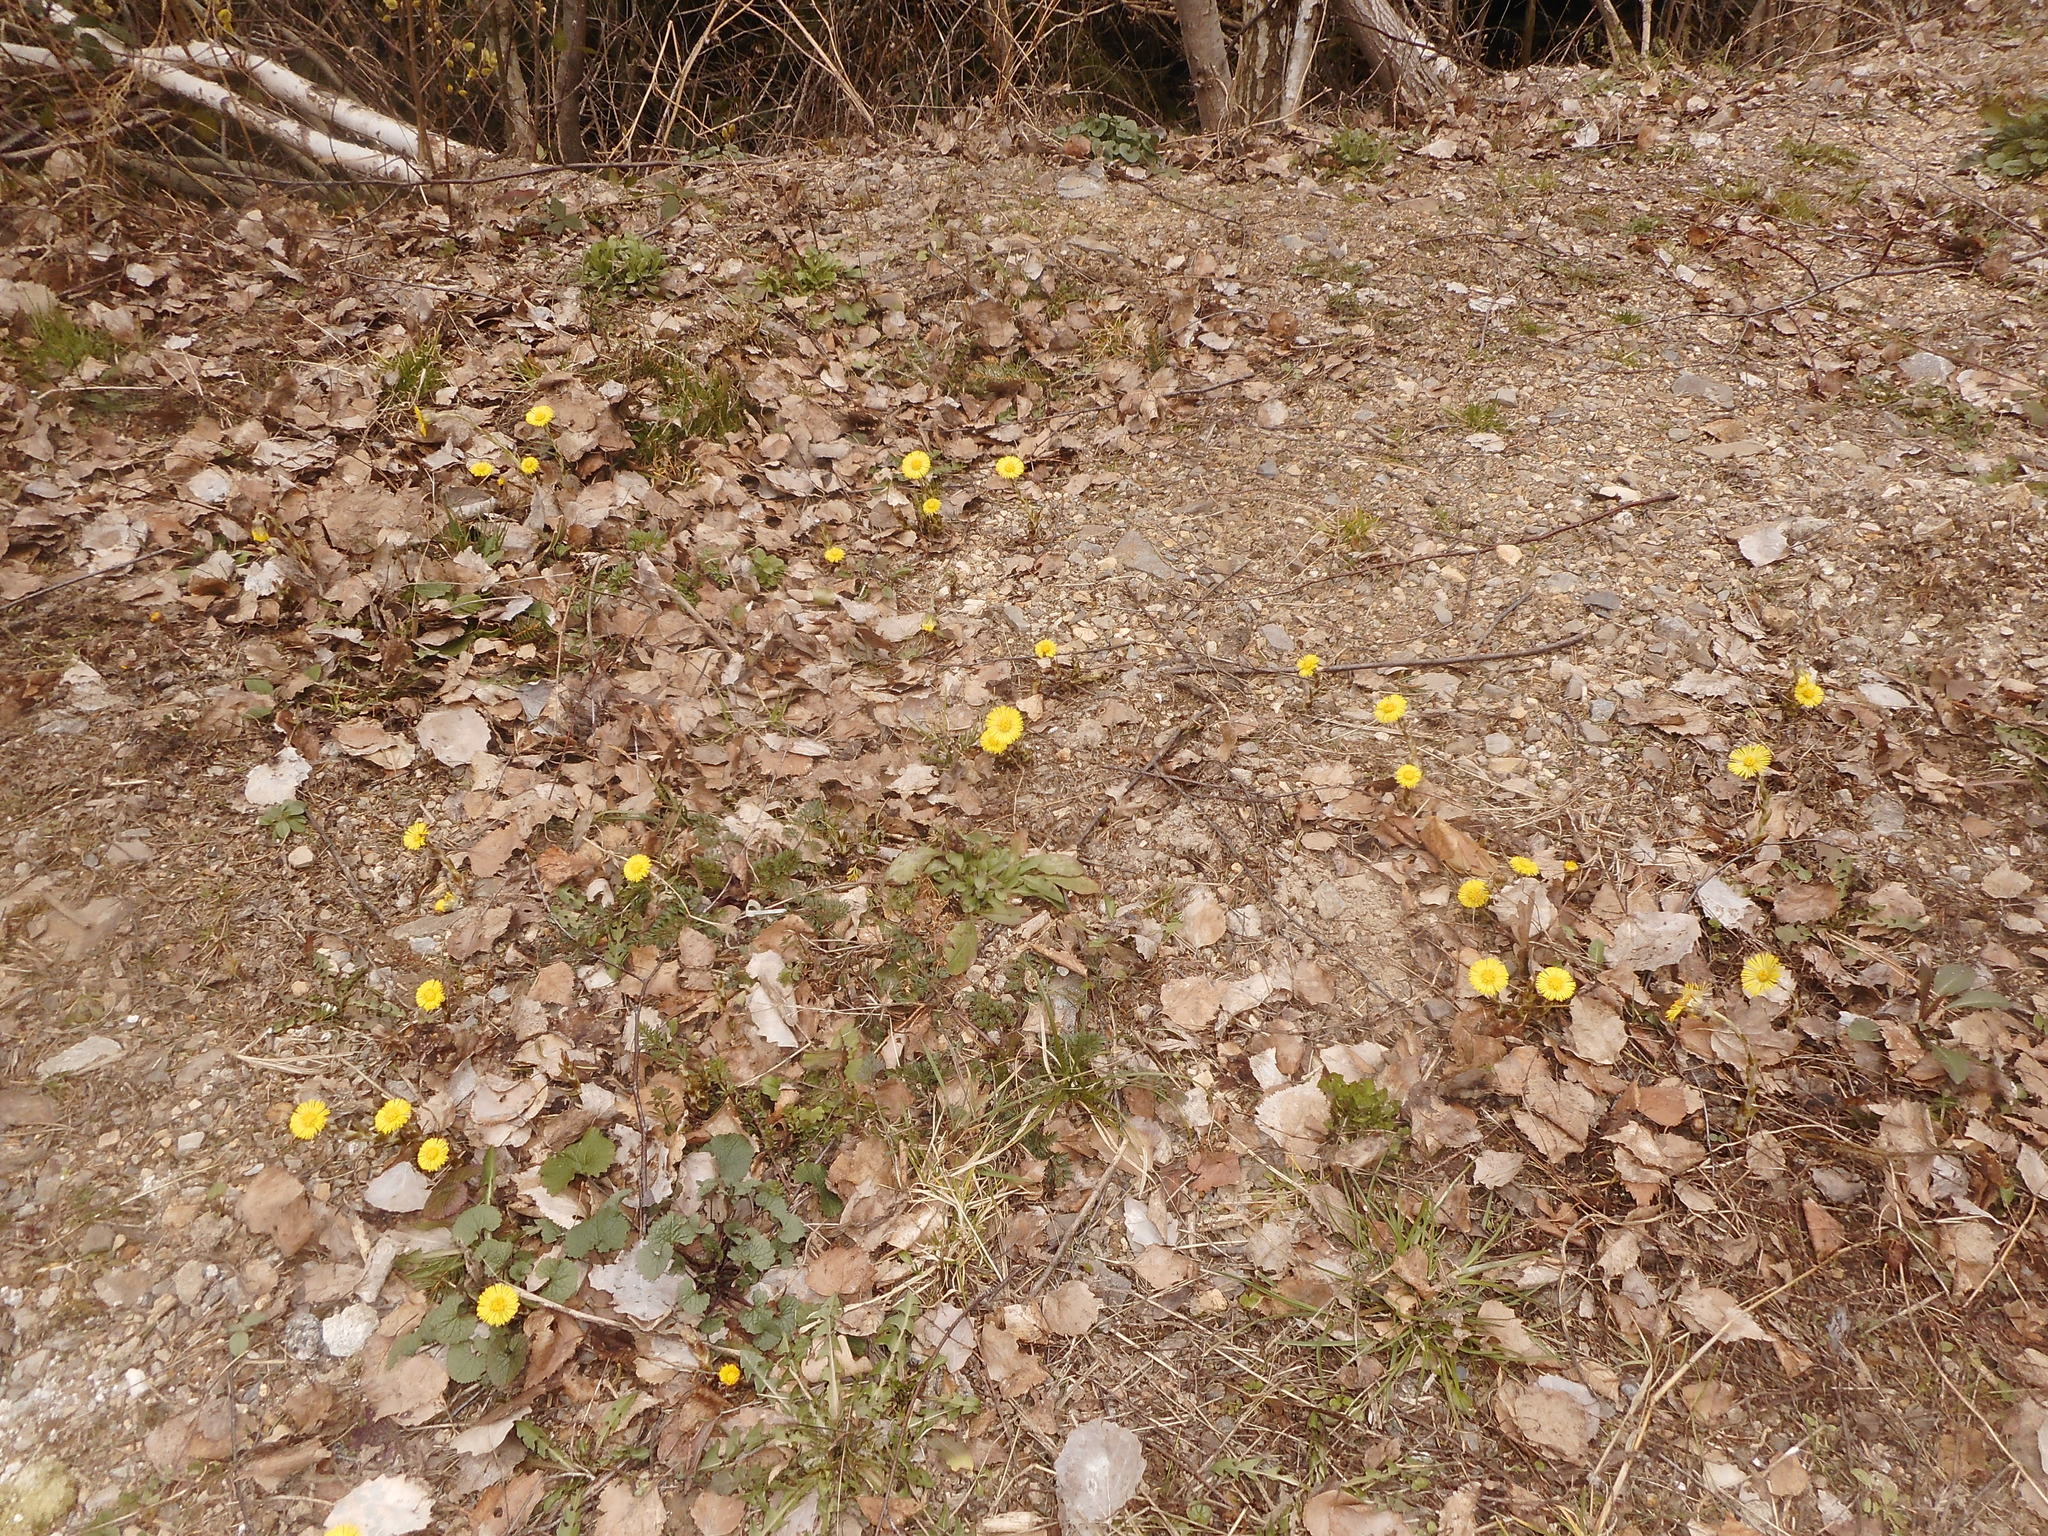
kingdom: Plantae
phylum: Tracheophyta
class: Magnoliopsida
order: Asterales
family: Asteraceae
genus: Tussilago
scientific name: Tussilago farfara
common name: Coltsfoot
